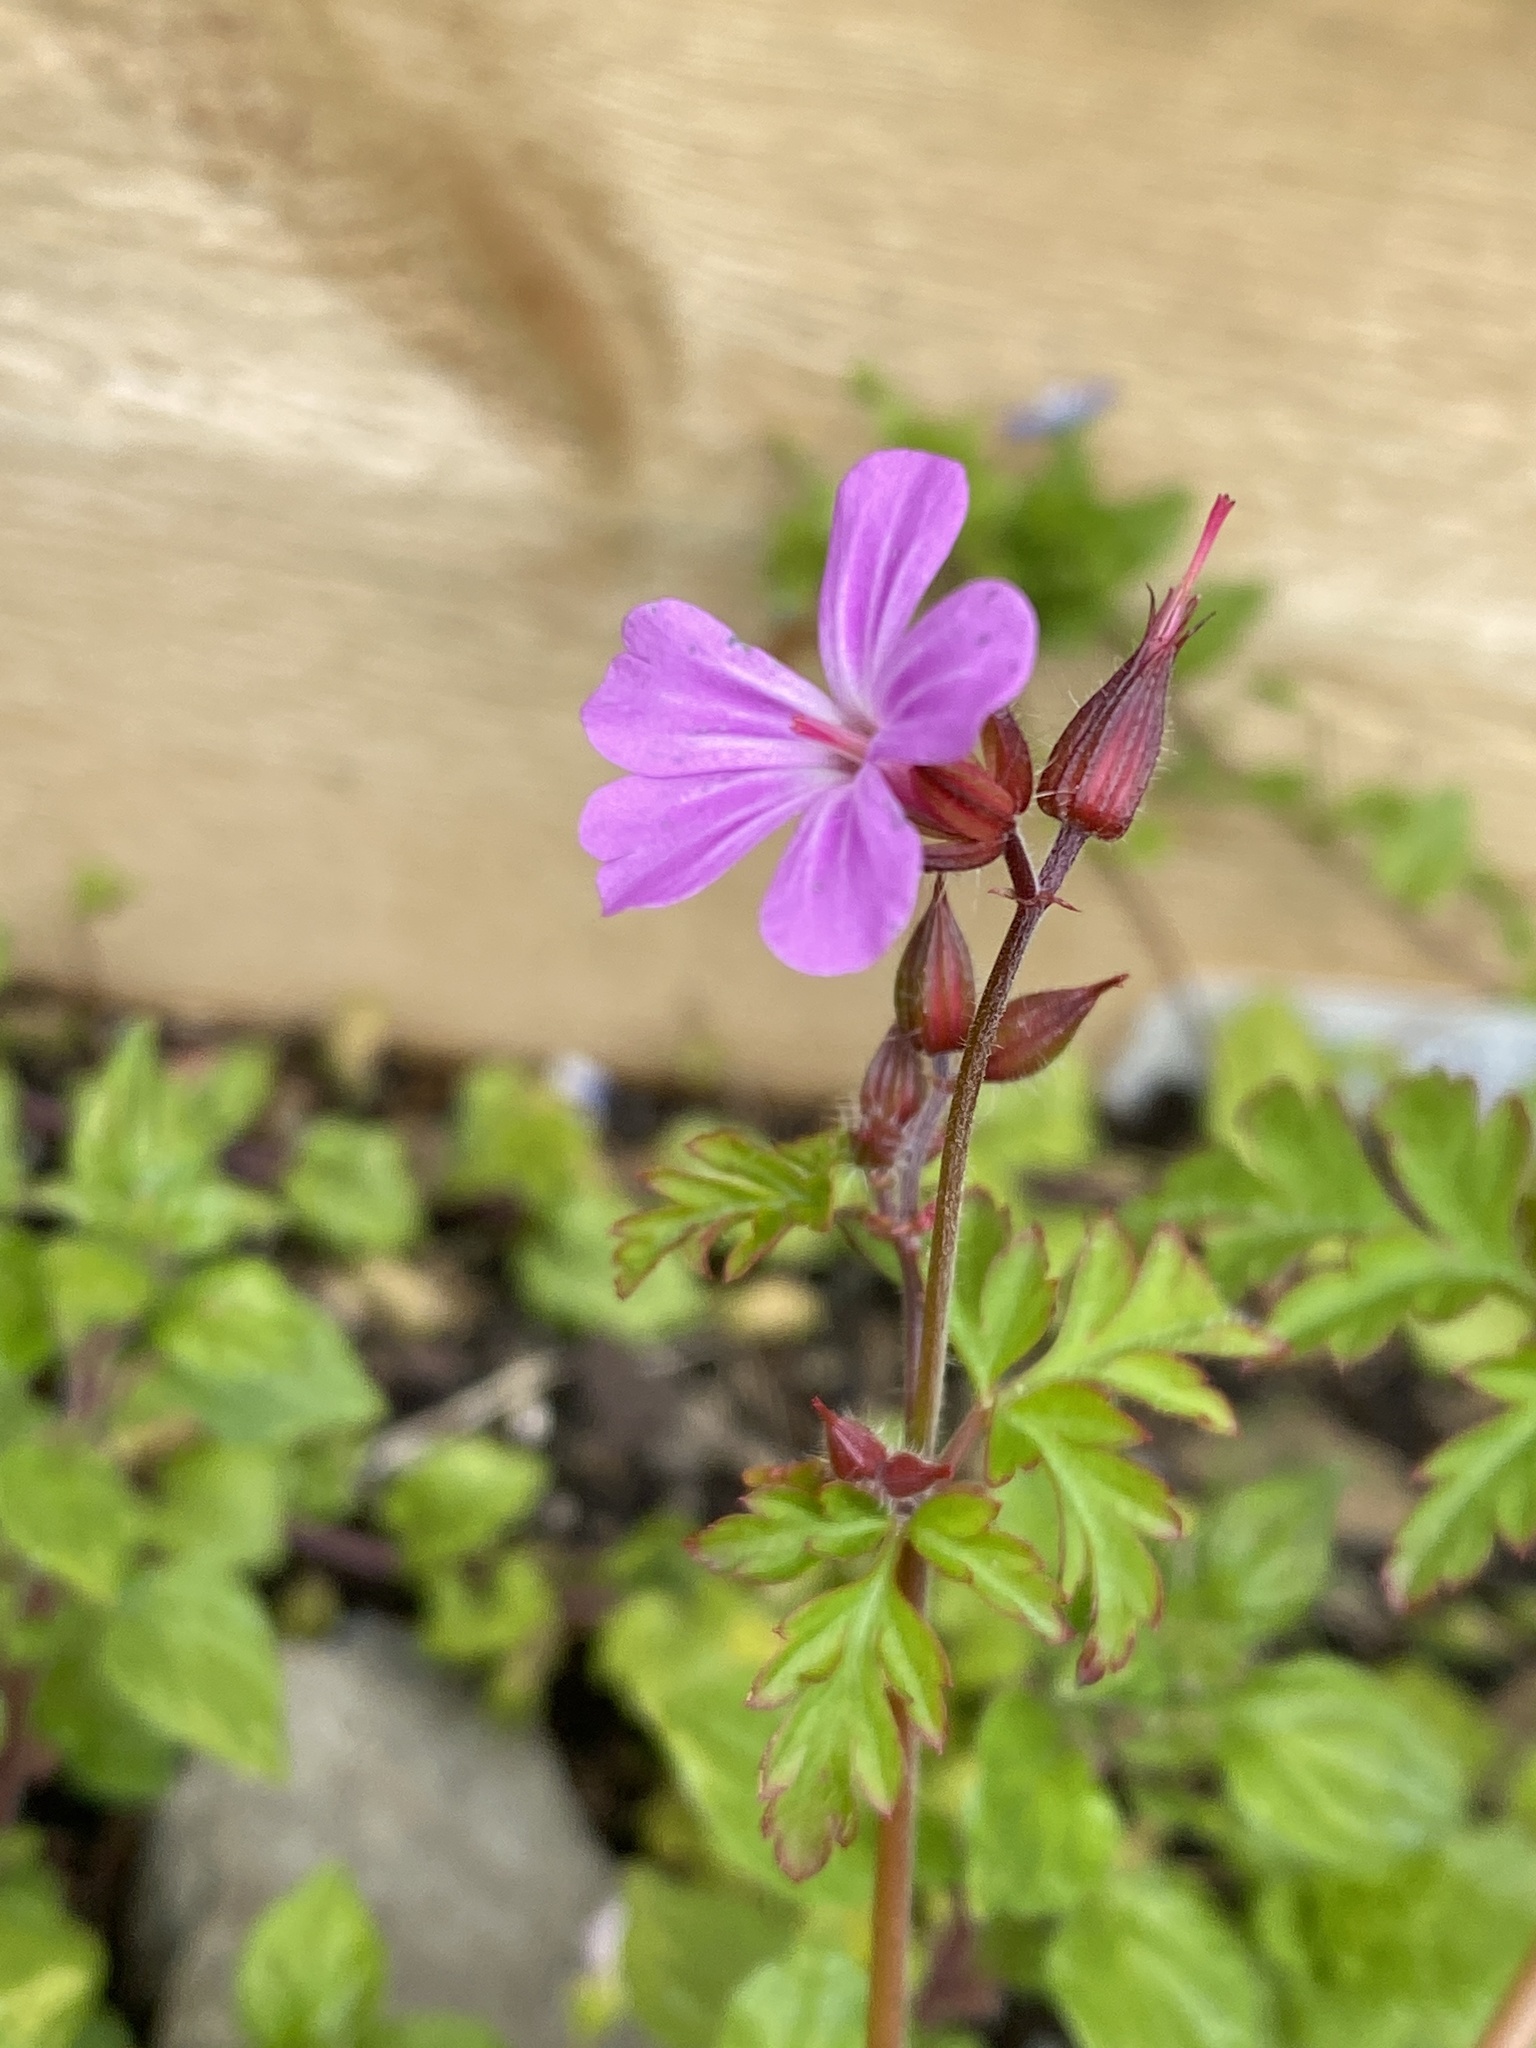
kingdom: Plantae
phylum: Tracheophyta
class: Magnoliopsida
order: Geraniales
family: Geraniaceae
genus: Geranium
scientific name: Geranium robertianum
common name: Herb-robert
